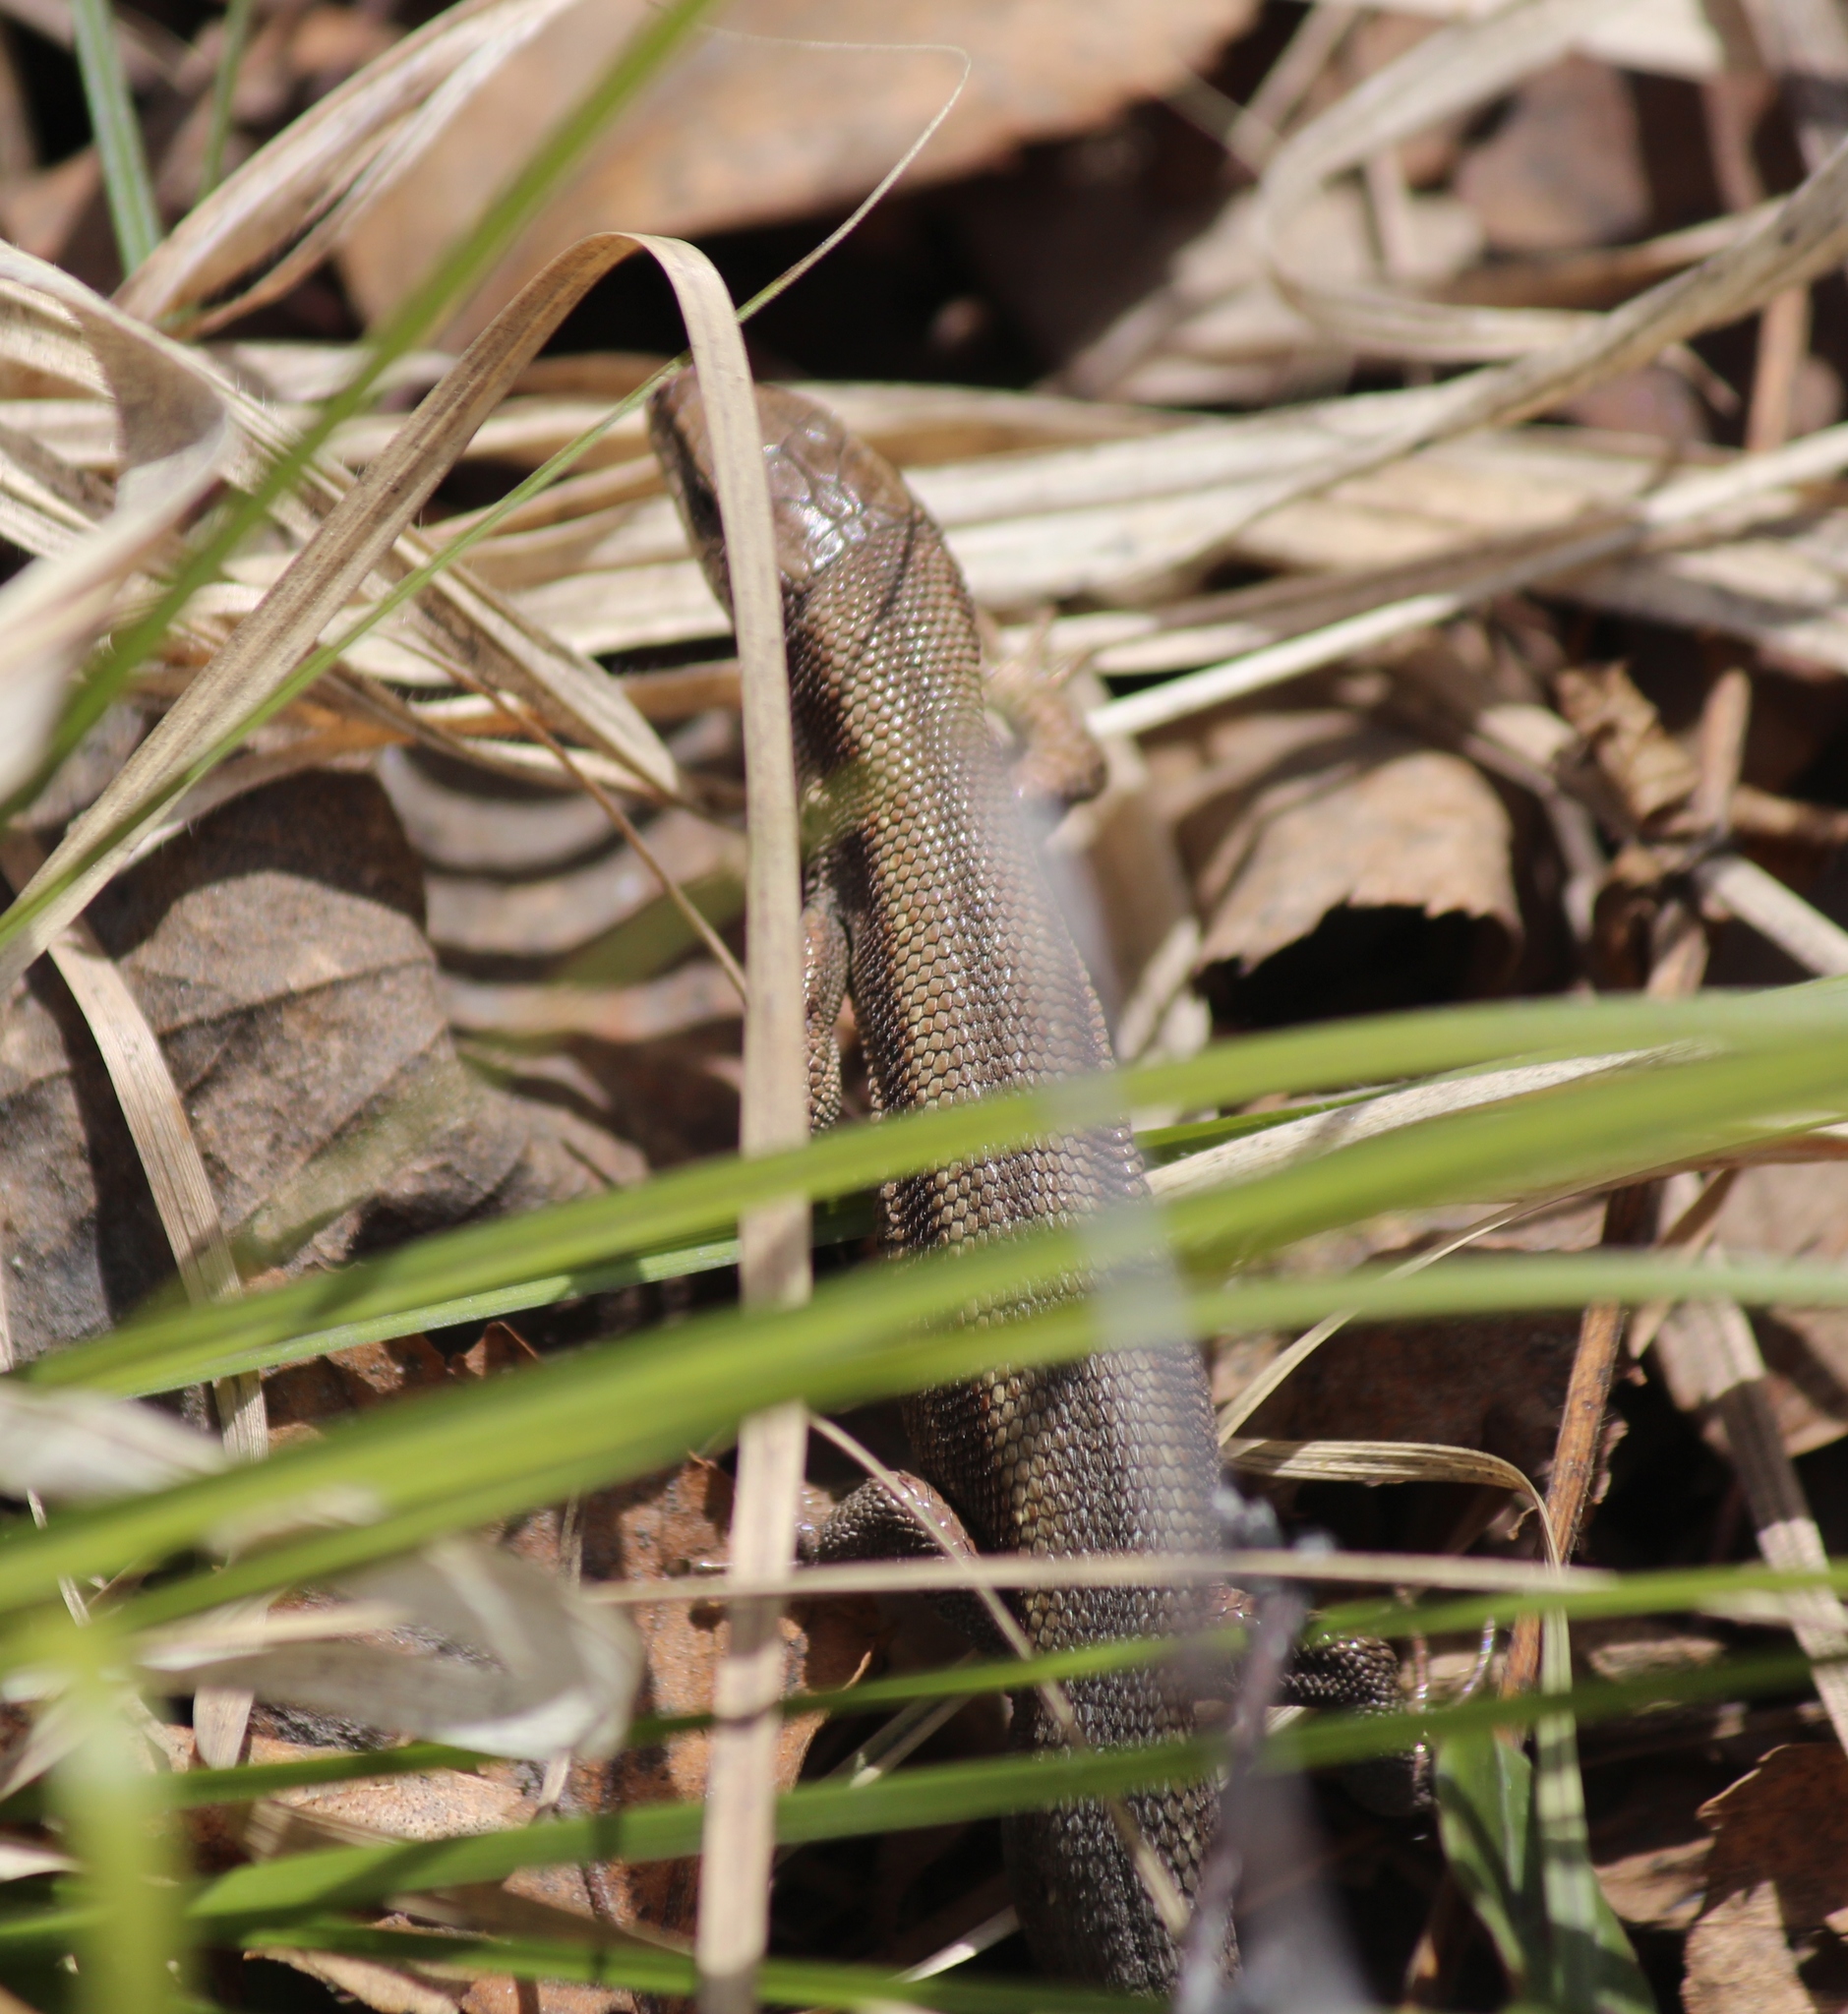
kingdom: Animalia
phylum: Chordata
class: Squamata
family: Lacertidae
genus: Zootoca
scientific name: Zootoca vivipara
